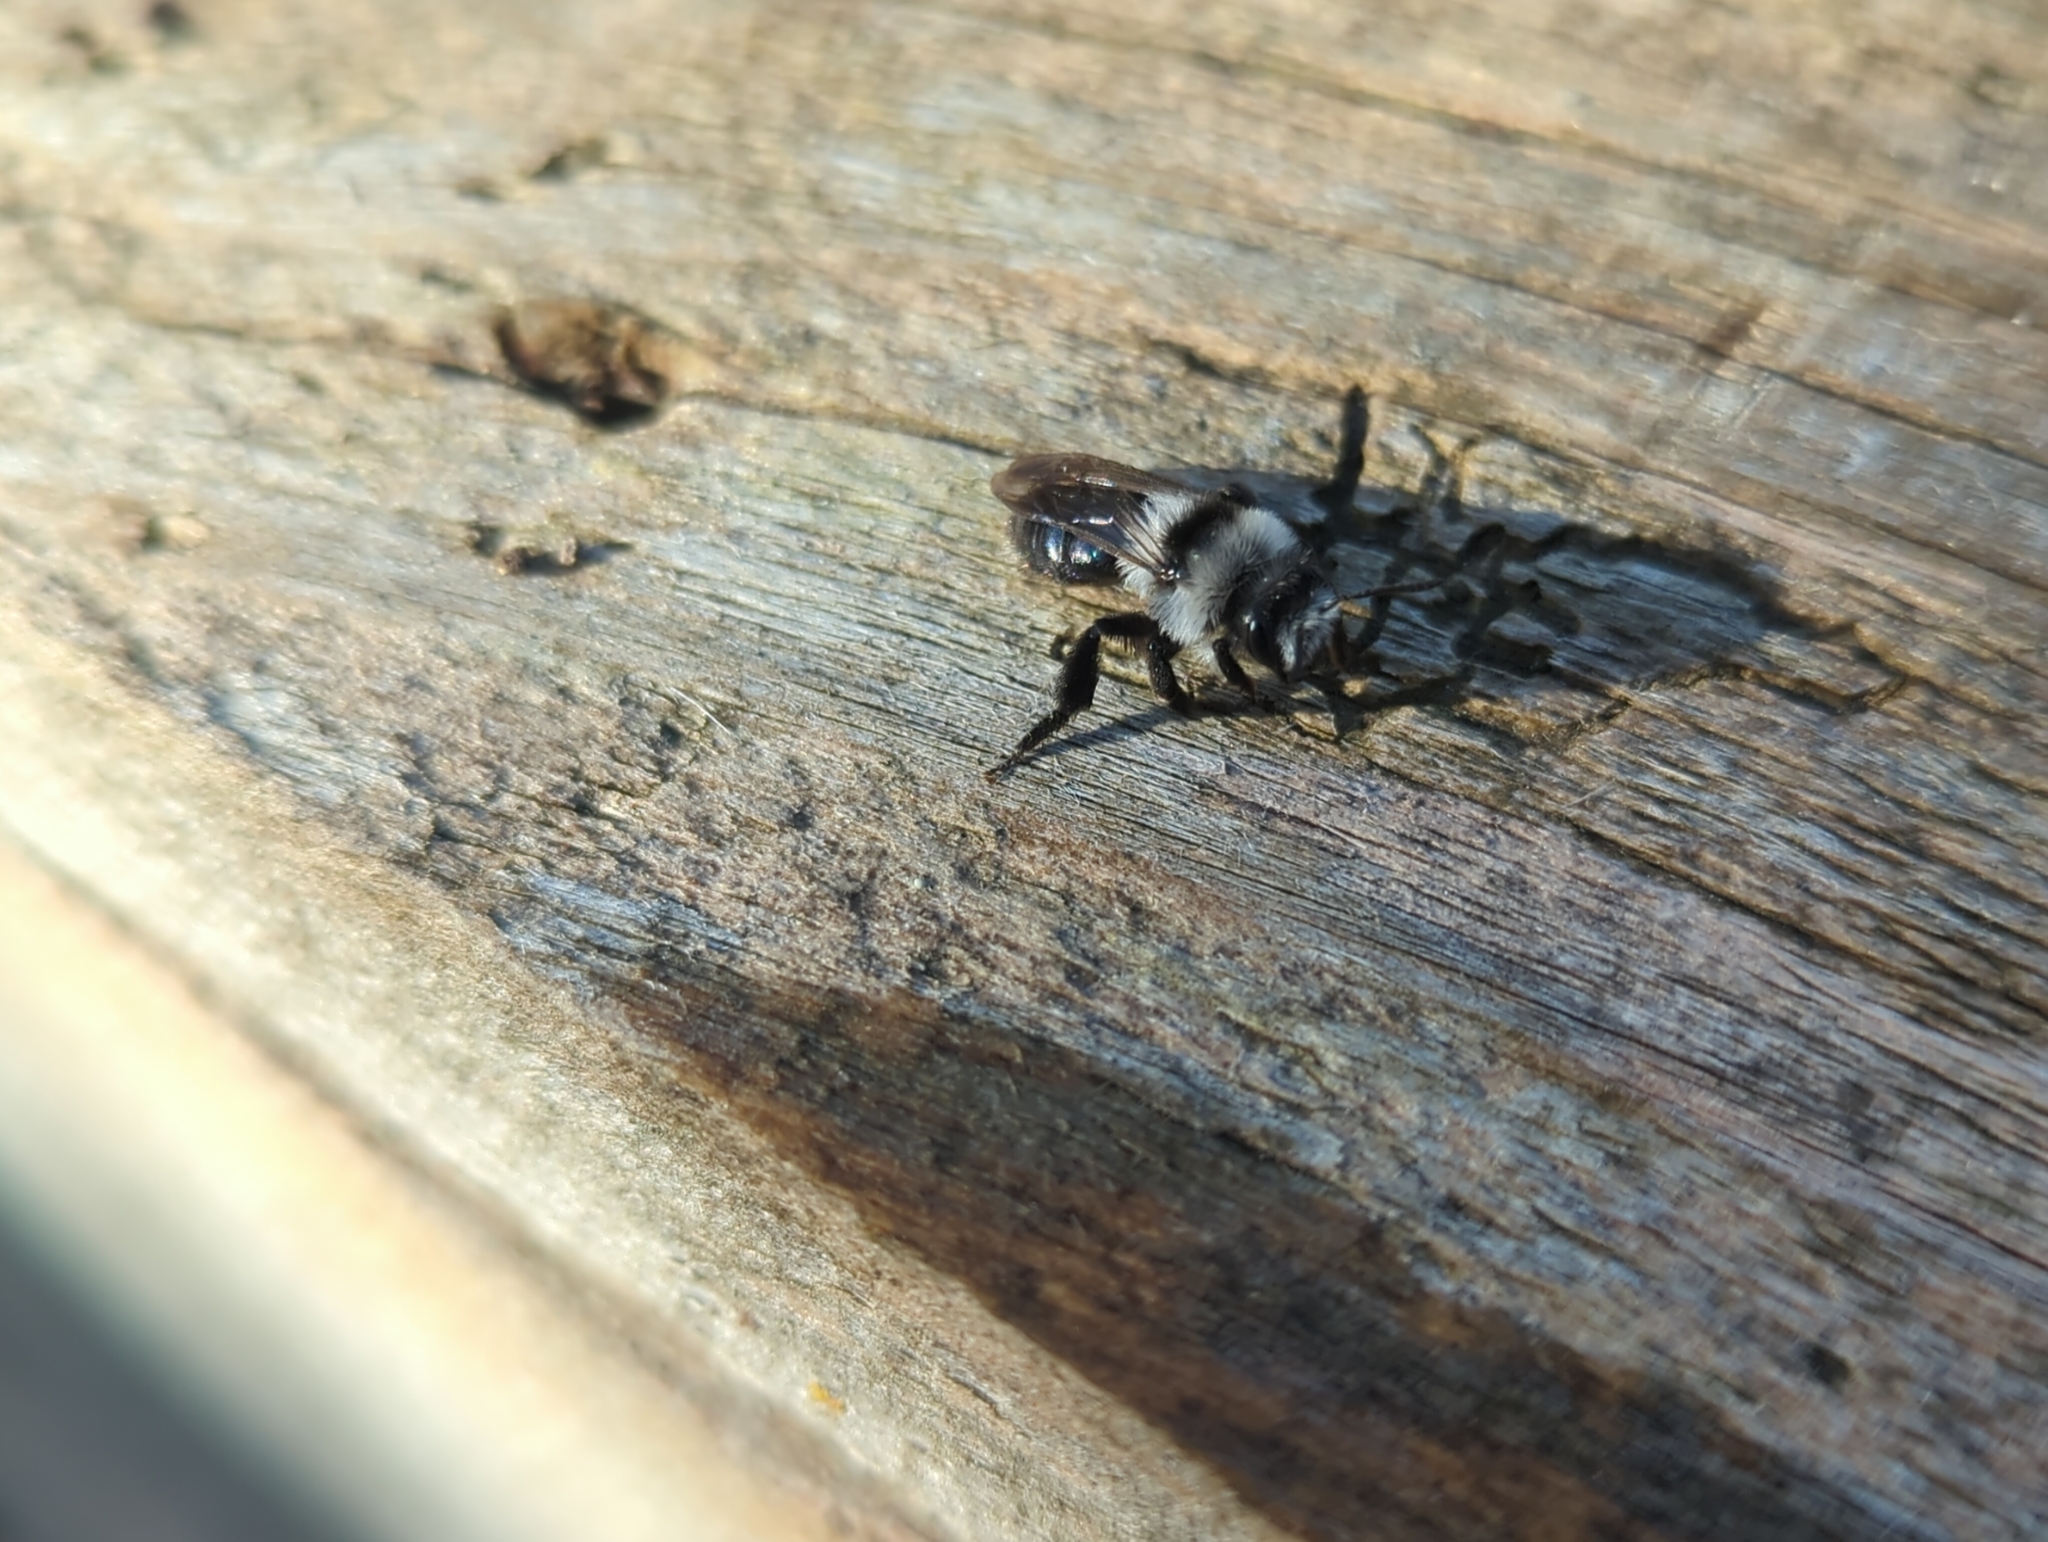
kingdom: Animalia
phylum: Arthropoda
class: Insecta
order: Hymenoptera
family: Andrenidae
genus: Andrena
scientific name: Andrena cineraria
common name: Ashy mining bee
